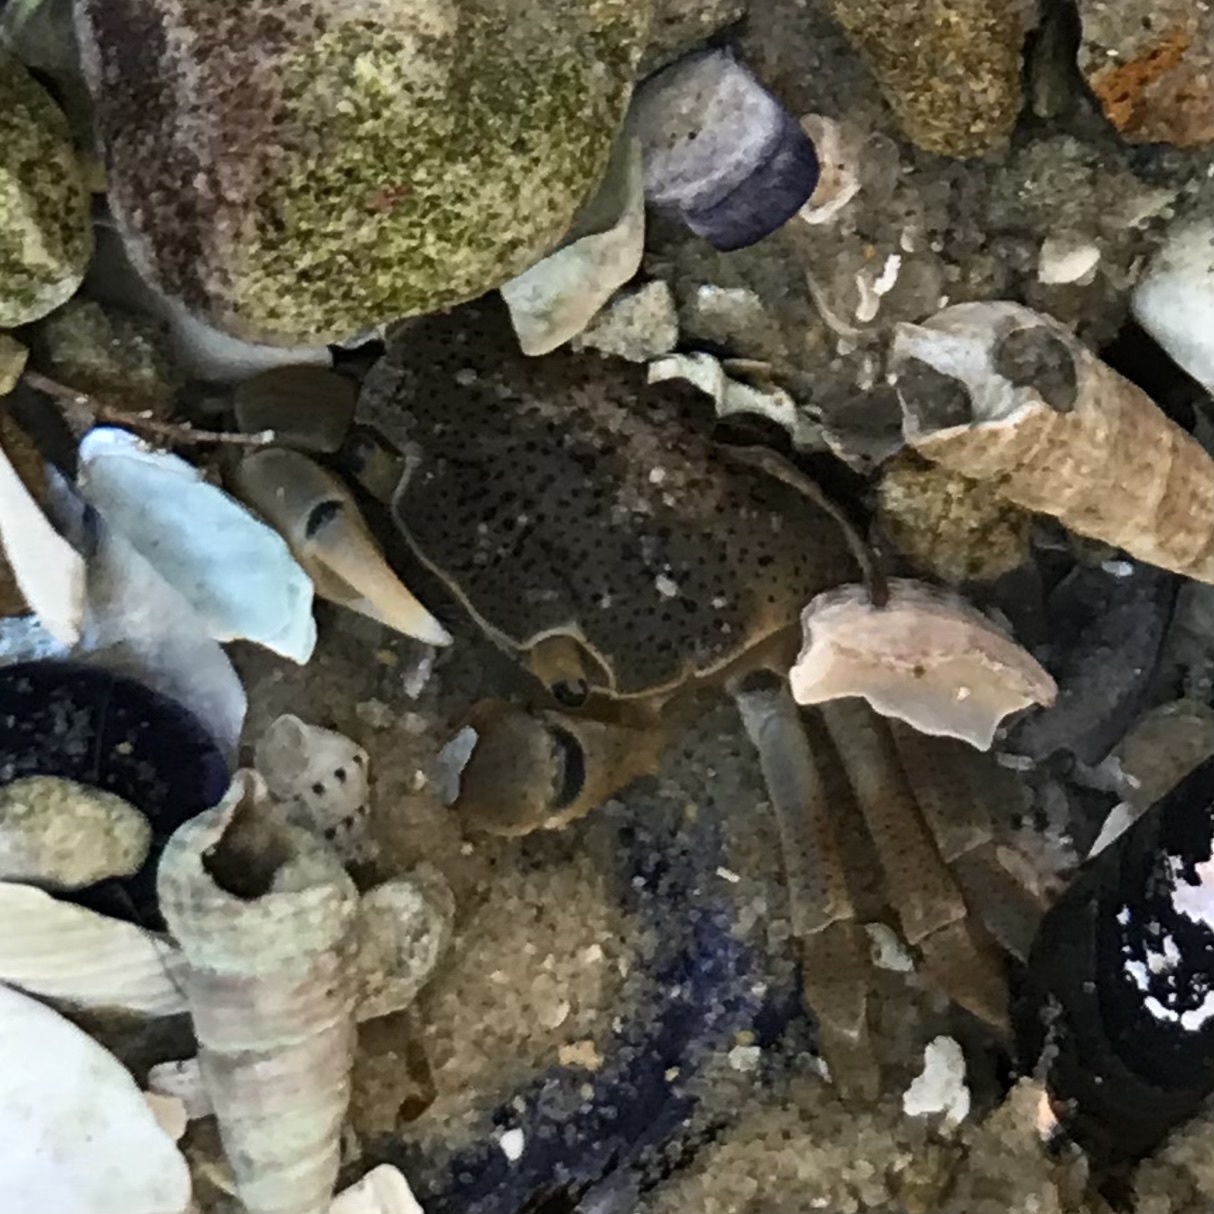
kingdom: Animalia
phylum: Arthropoda
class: Malacostraca
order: Decapoda
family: Varunidae
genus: Paragrapsus
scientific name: Paragrapsus quadridentatus
